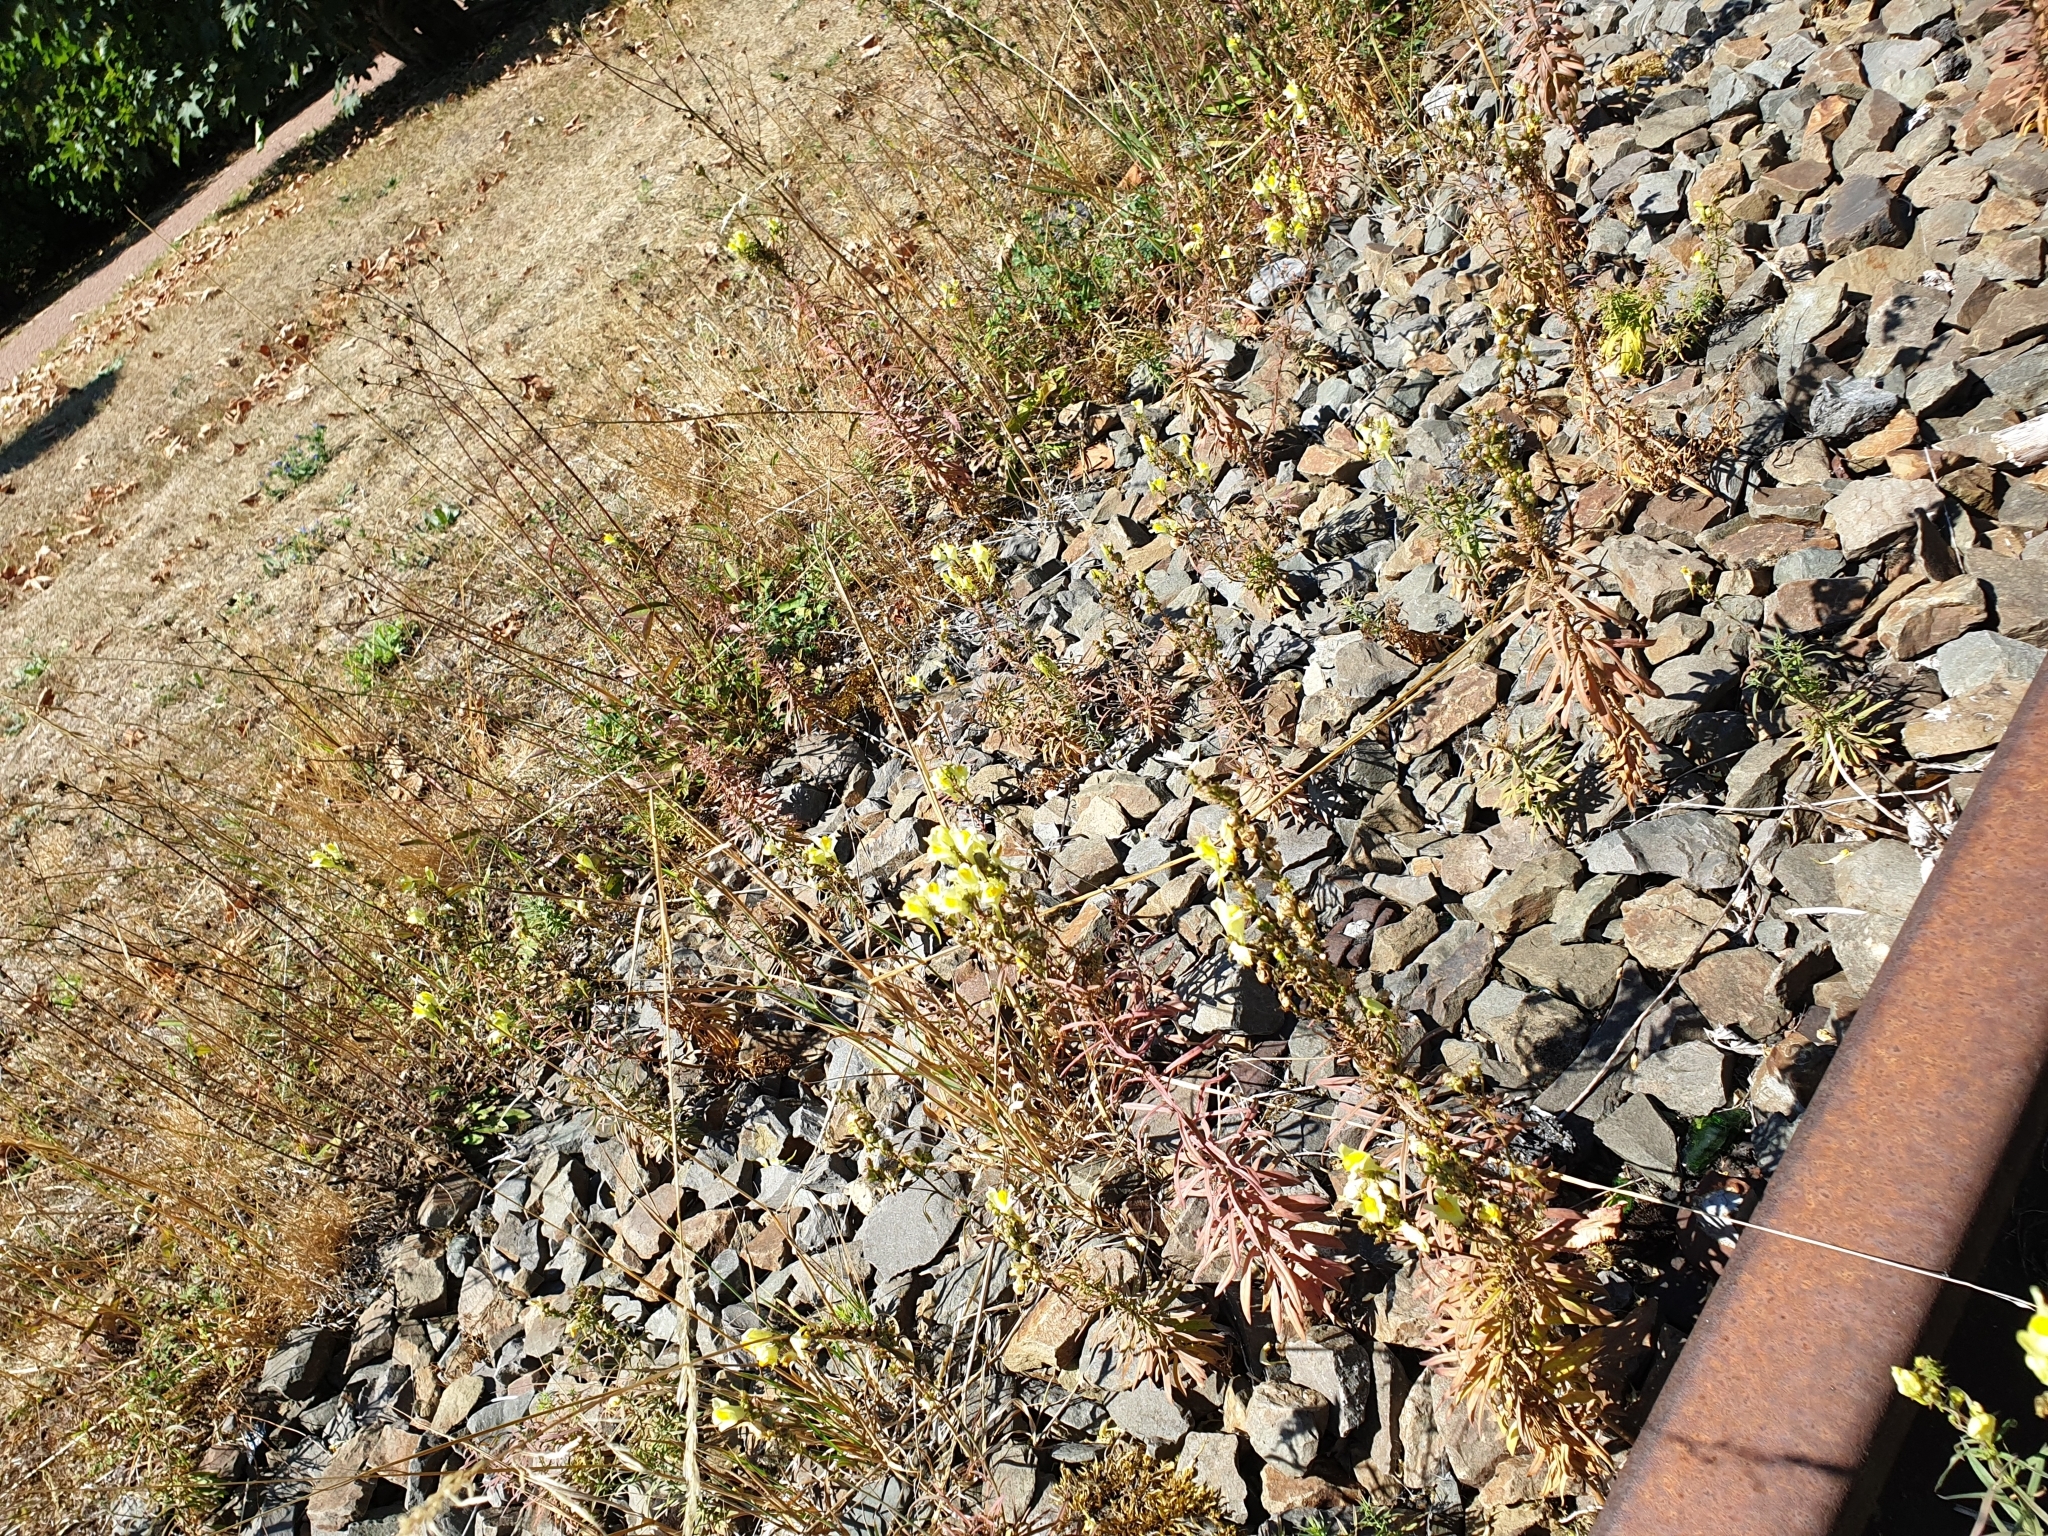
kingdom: Plantae
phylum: Tracheophyta
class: Magnoliopsida
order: Lamiales
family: Plantaginaceae
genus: Linaria
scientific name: Linaria vulgaris
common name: Butter and eggs
